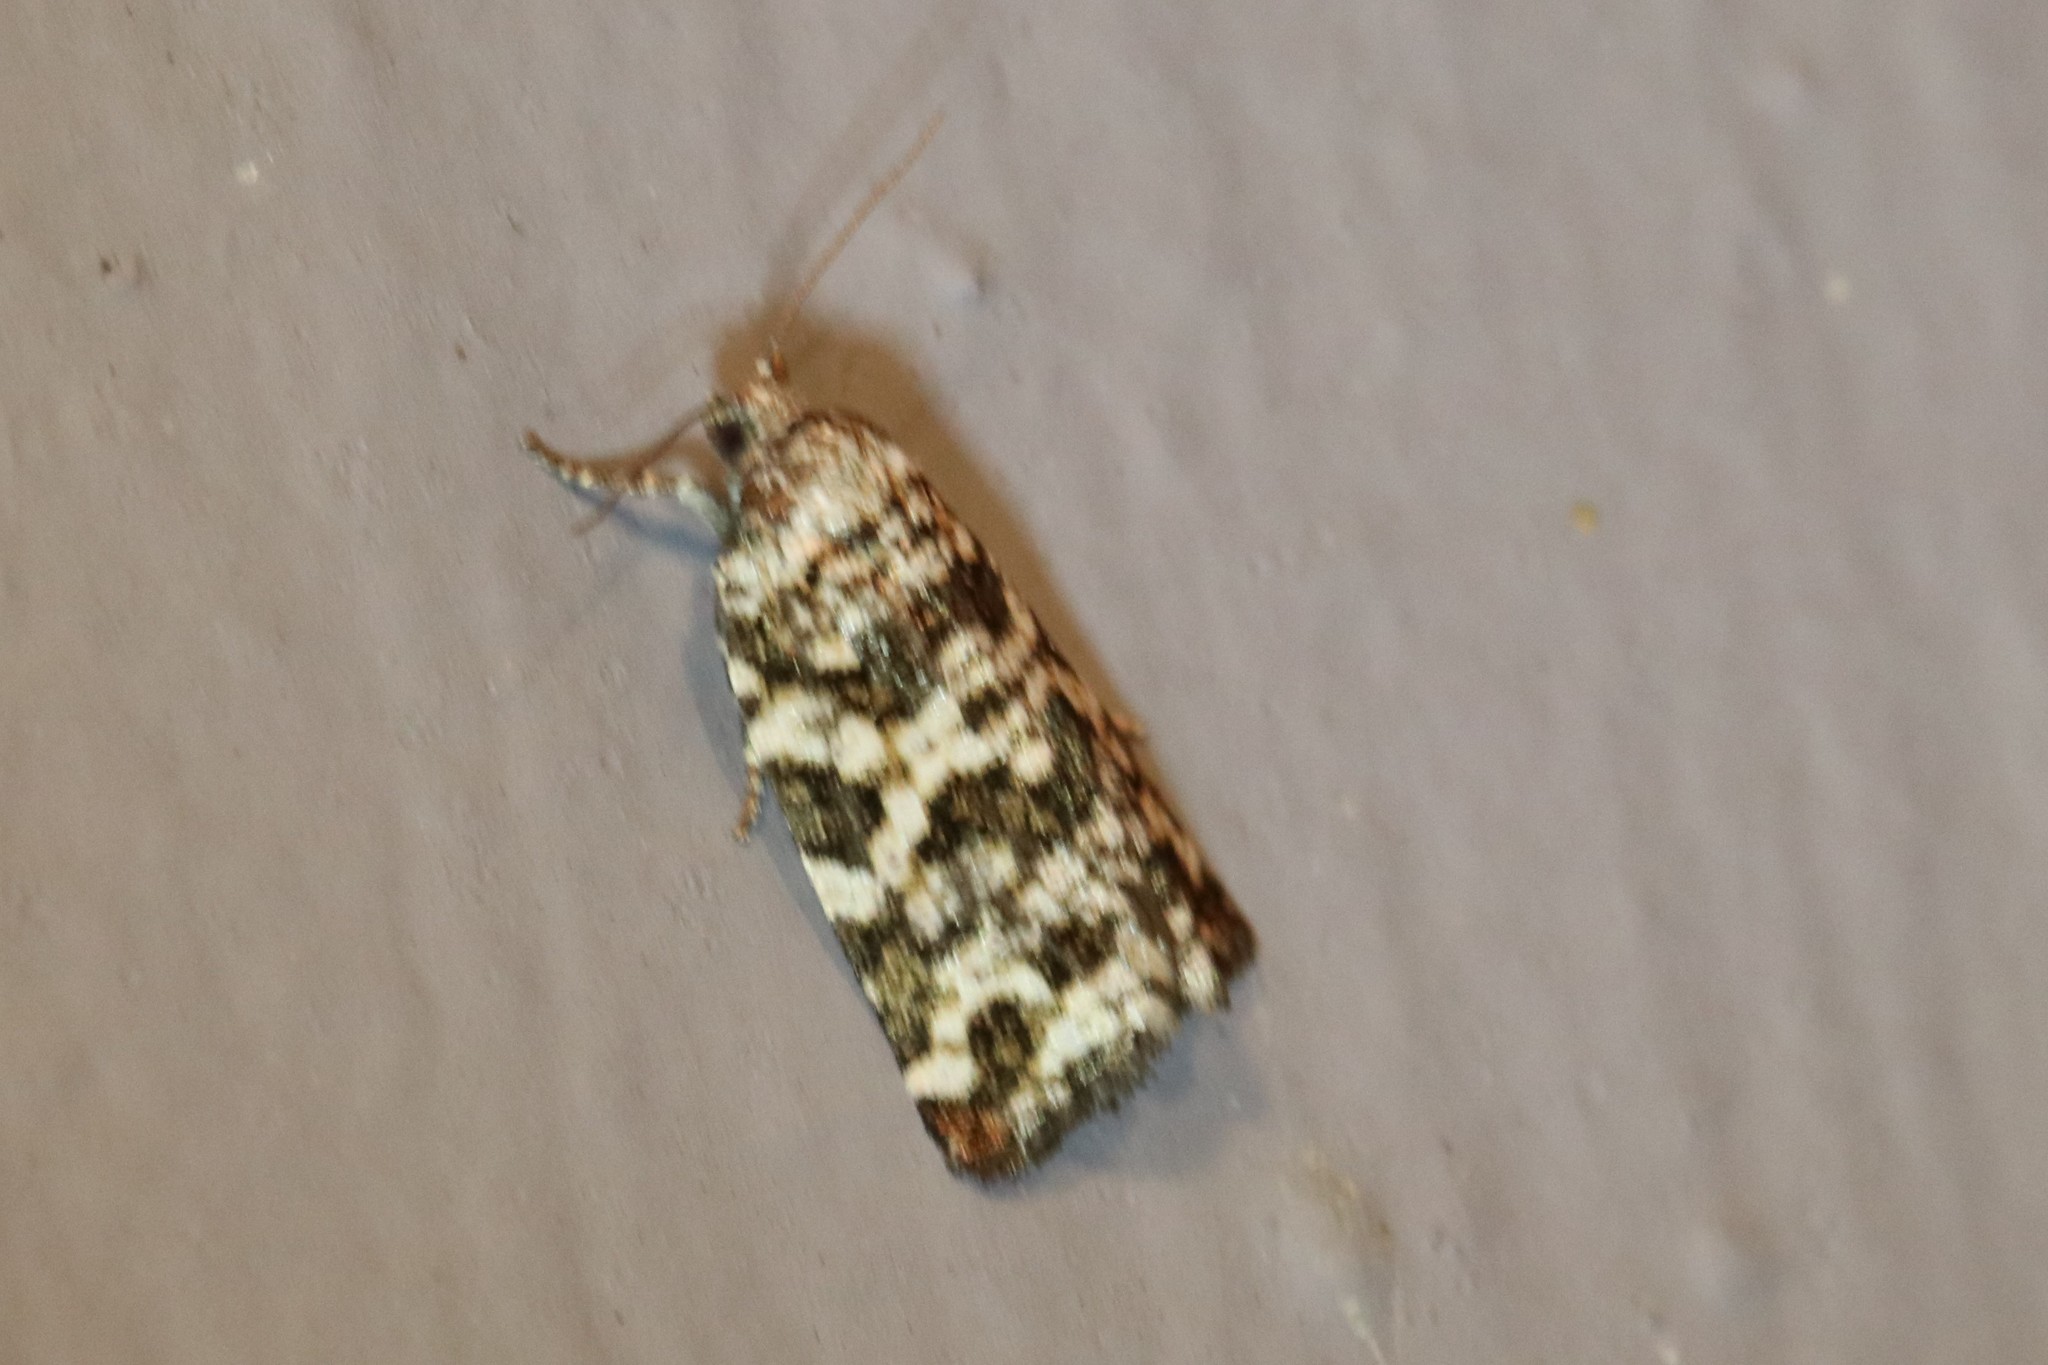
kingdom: Animalia
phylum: Arthropoda
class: Insecta
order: Lepidoptera
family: Tortricidae
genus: Archips
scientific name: Archips packardiana
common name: Spring spruce needle moth
